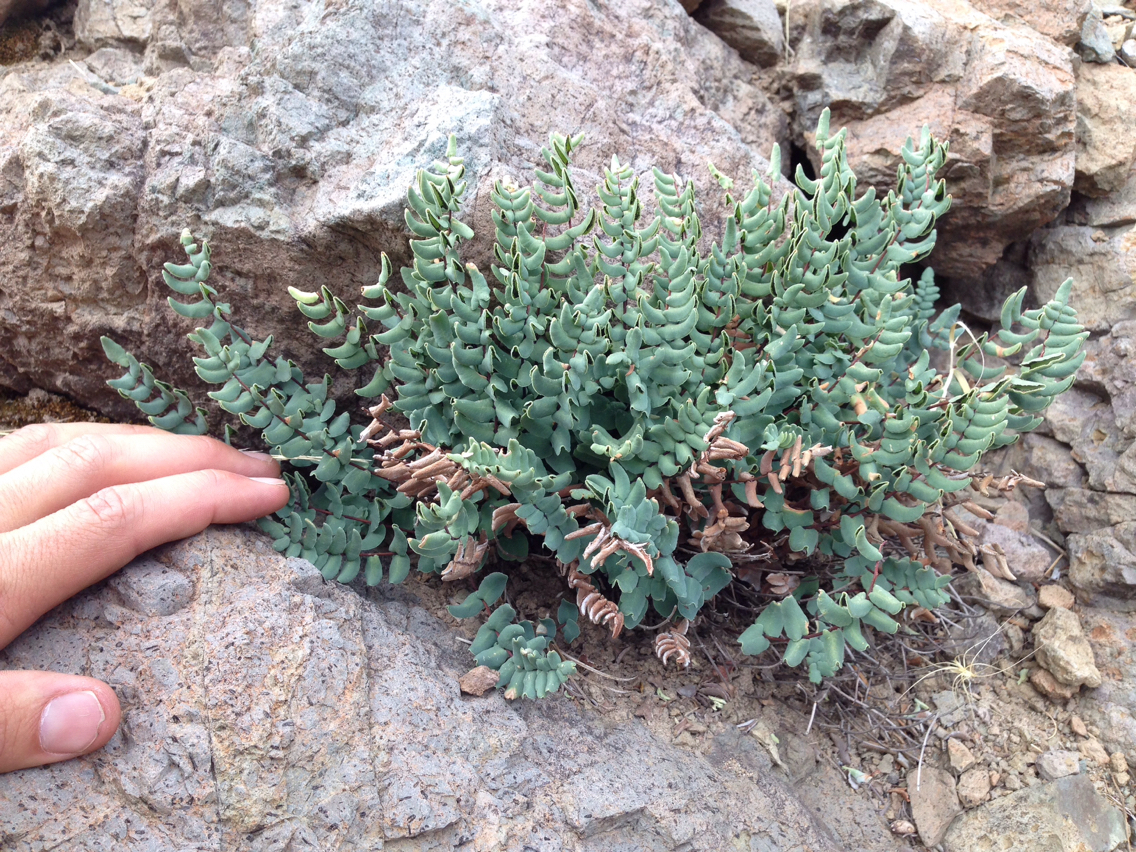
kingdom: Plantae
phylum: Tracheophyta
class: Polypodiopsida
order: Polypodiales
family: Pteridaceae
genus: Pellaea
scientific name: Pellaea bridgesii
